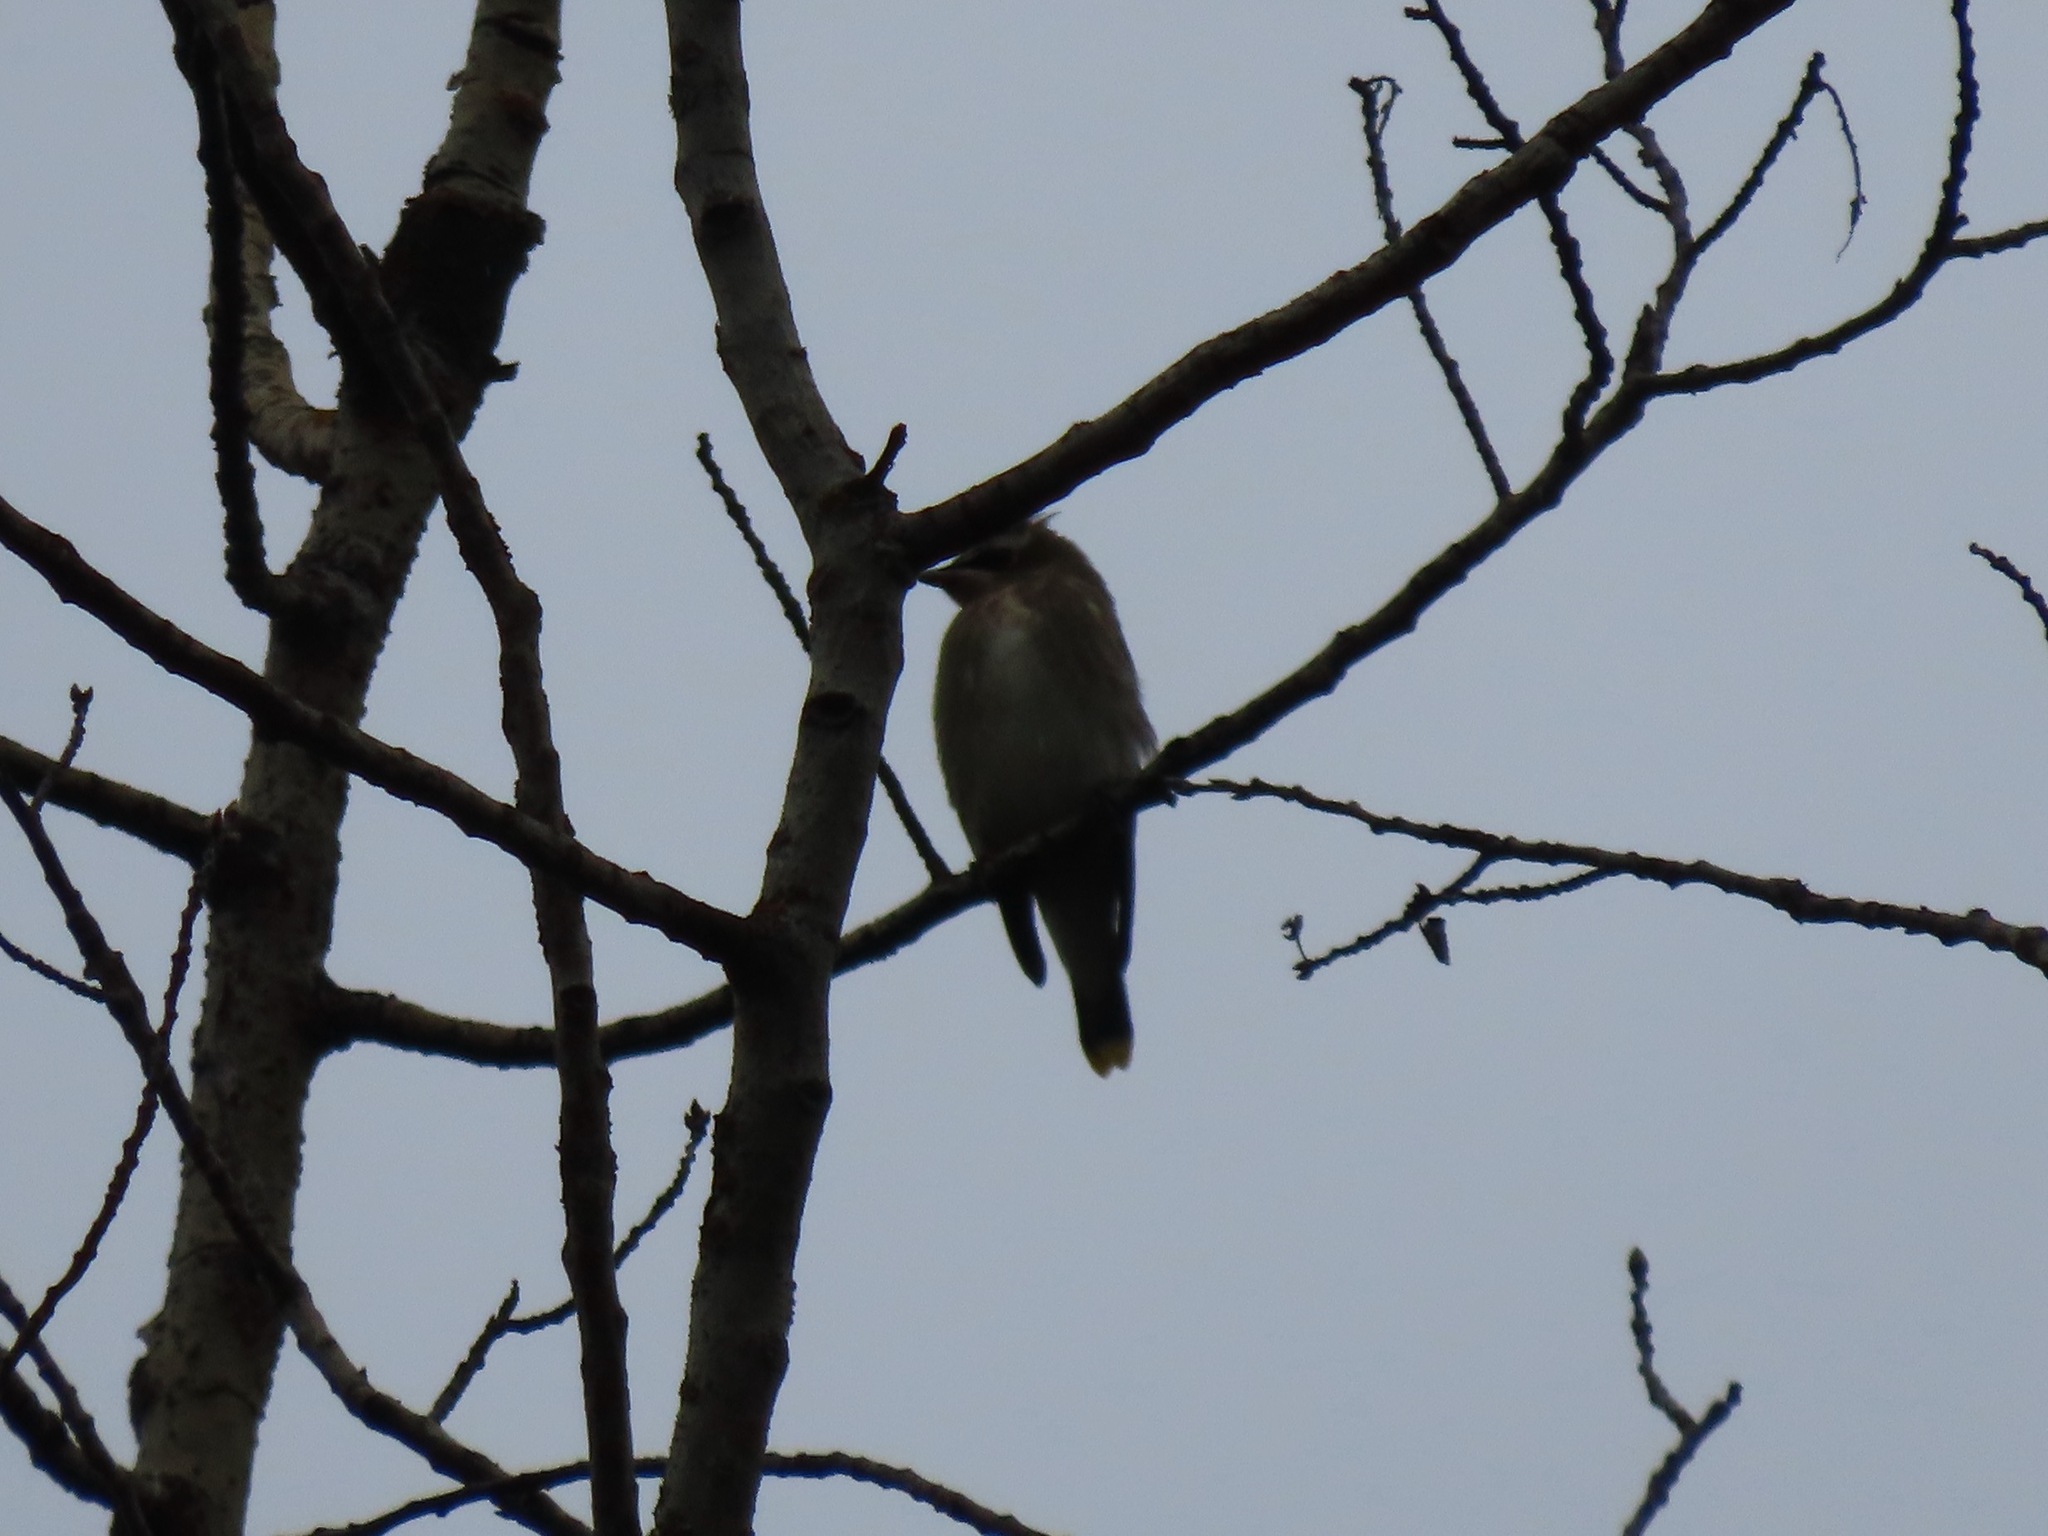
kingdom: Animalia
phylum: Chordata
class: Aves
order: Passeriformes
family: Bombycillidae
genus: Bombycilla
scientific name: Bombycilla cedrorum
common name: Cedar waxwing
